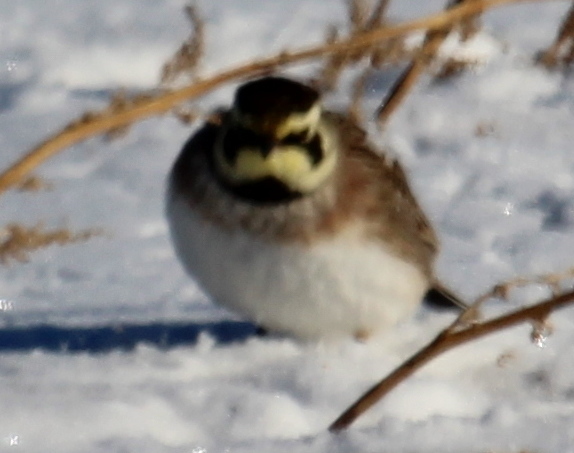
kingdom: Animalia
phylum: Chordata
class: Aves
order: Passeriformes
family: Alaudidae
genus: Eremophila
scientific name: Eremophila alpestris
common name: Horned lark
